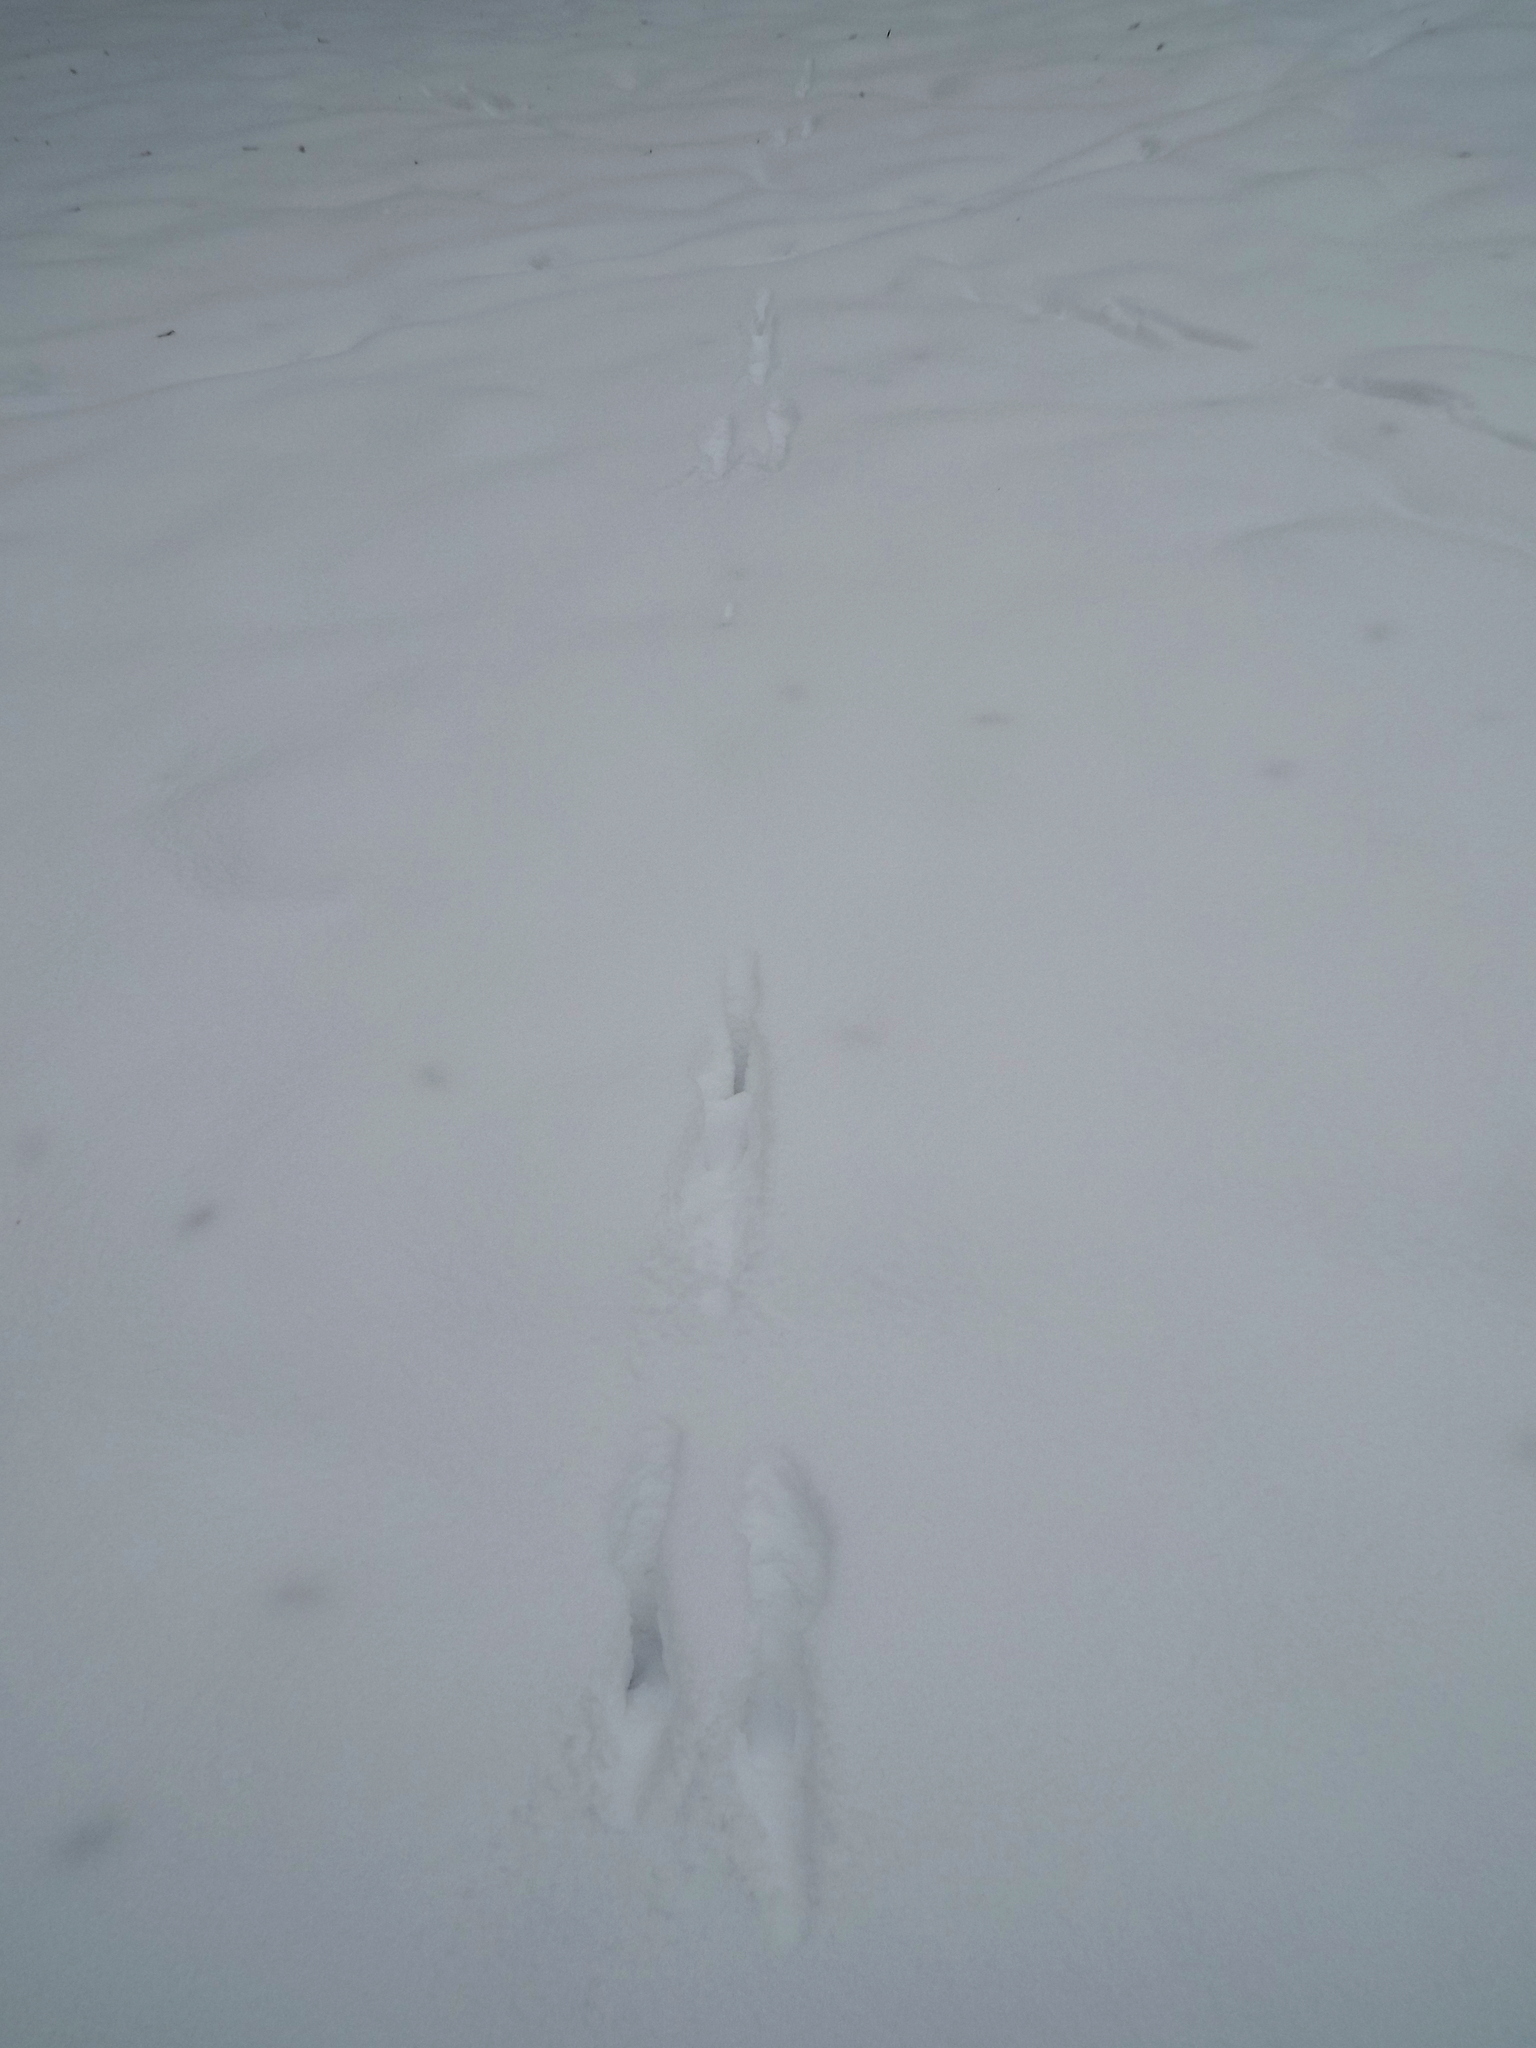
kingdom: Animalia
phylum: Chordata
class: Mammalia
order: Lagomorpha
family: Leporidae
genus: Lepus
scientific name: Lepus europaeus
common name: European hare
